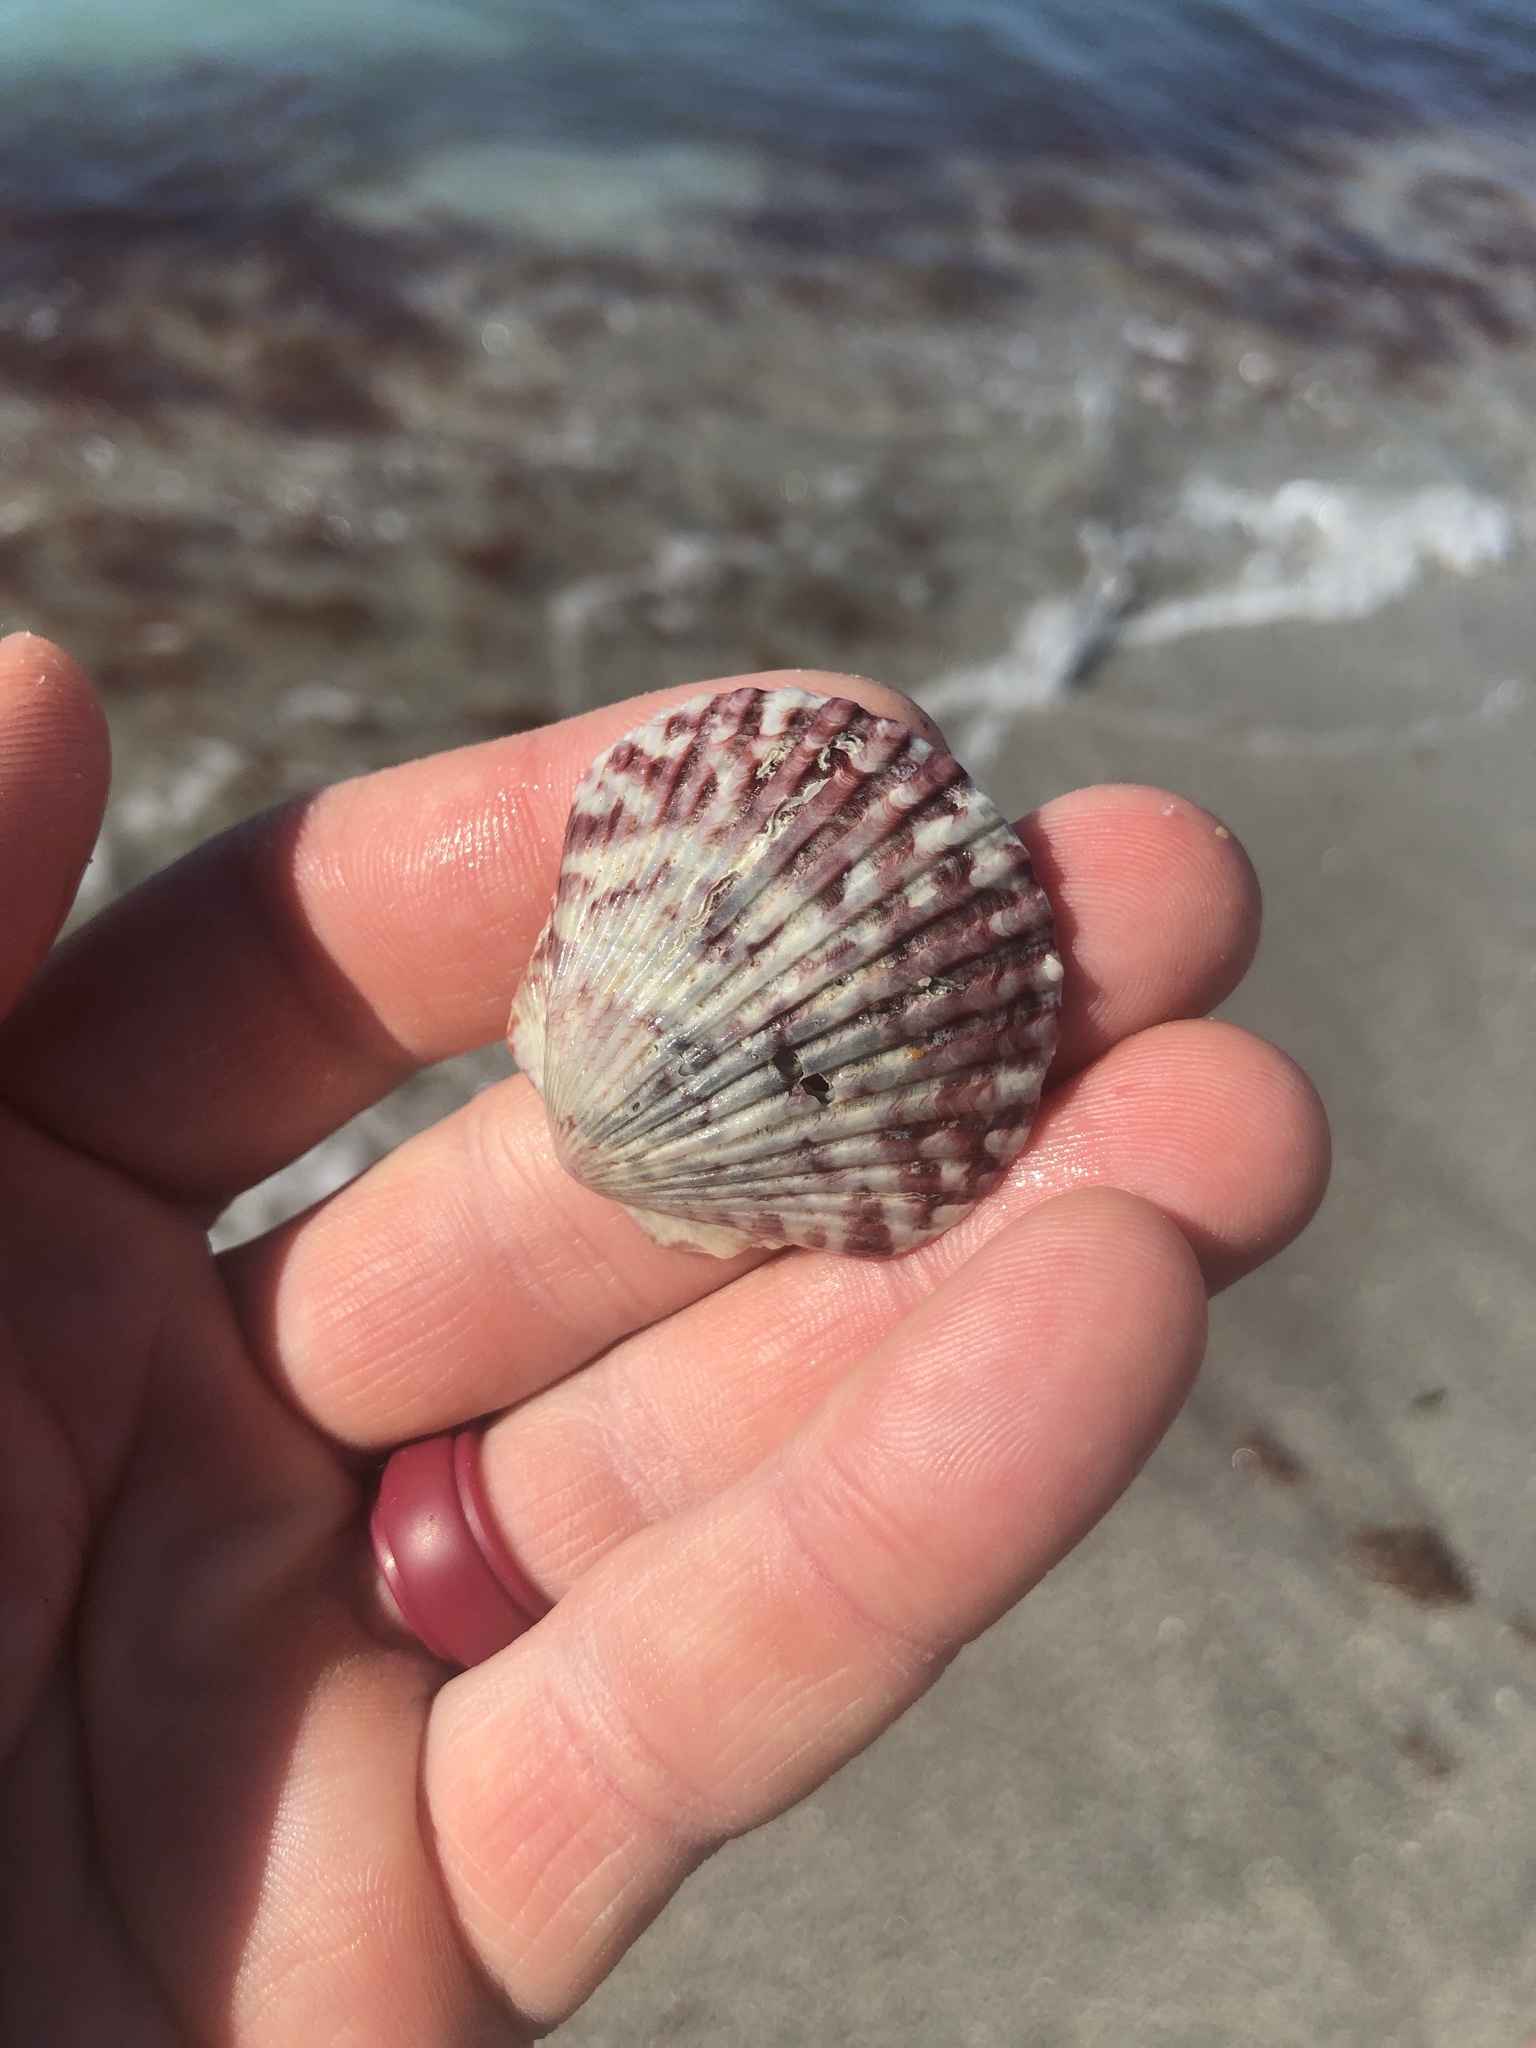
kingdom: Animalia
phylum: Mollusca
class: Bivalvia
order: Pectinida
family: Pectinidae
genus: Argopecten
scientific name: Argopecten gibbus
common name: Atlantic calico scallop
